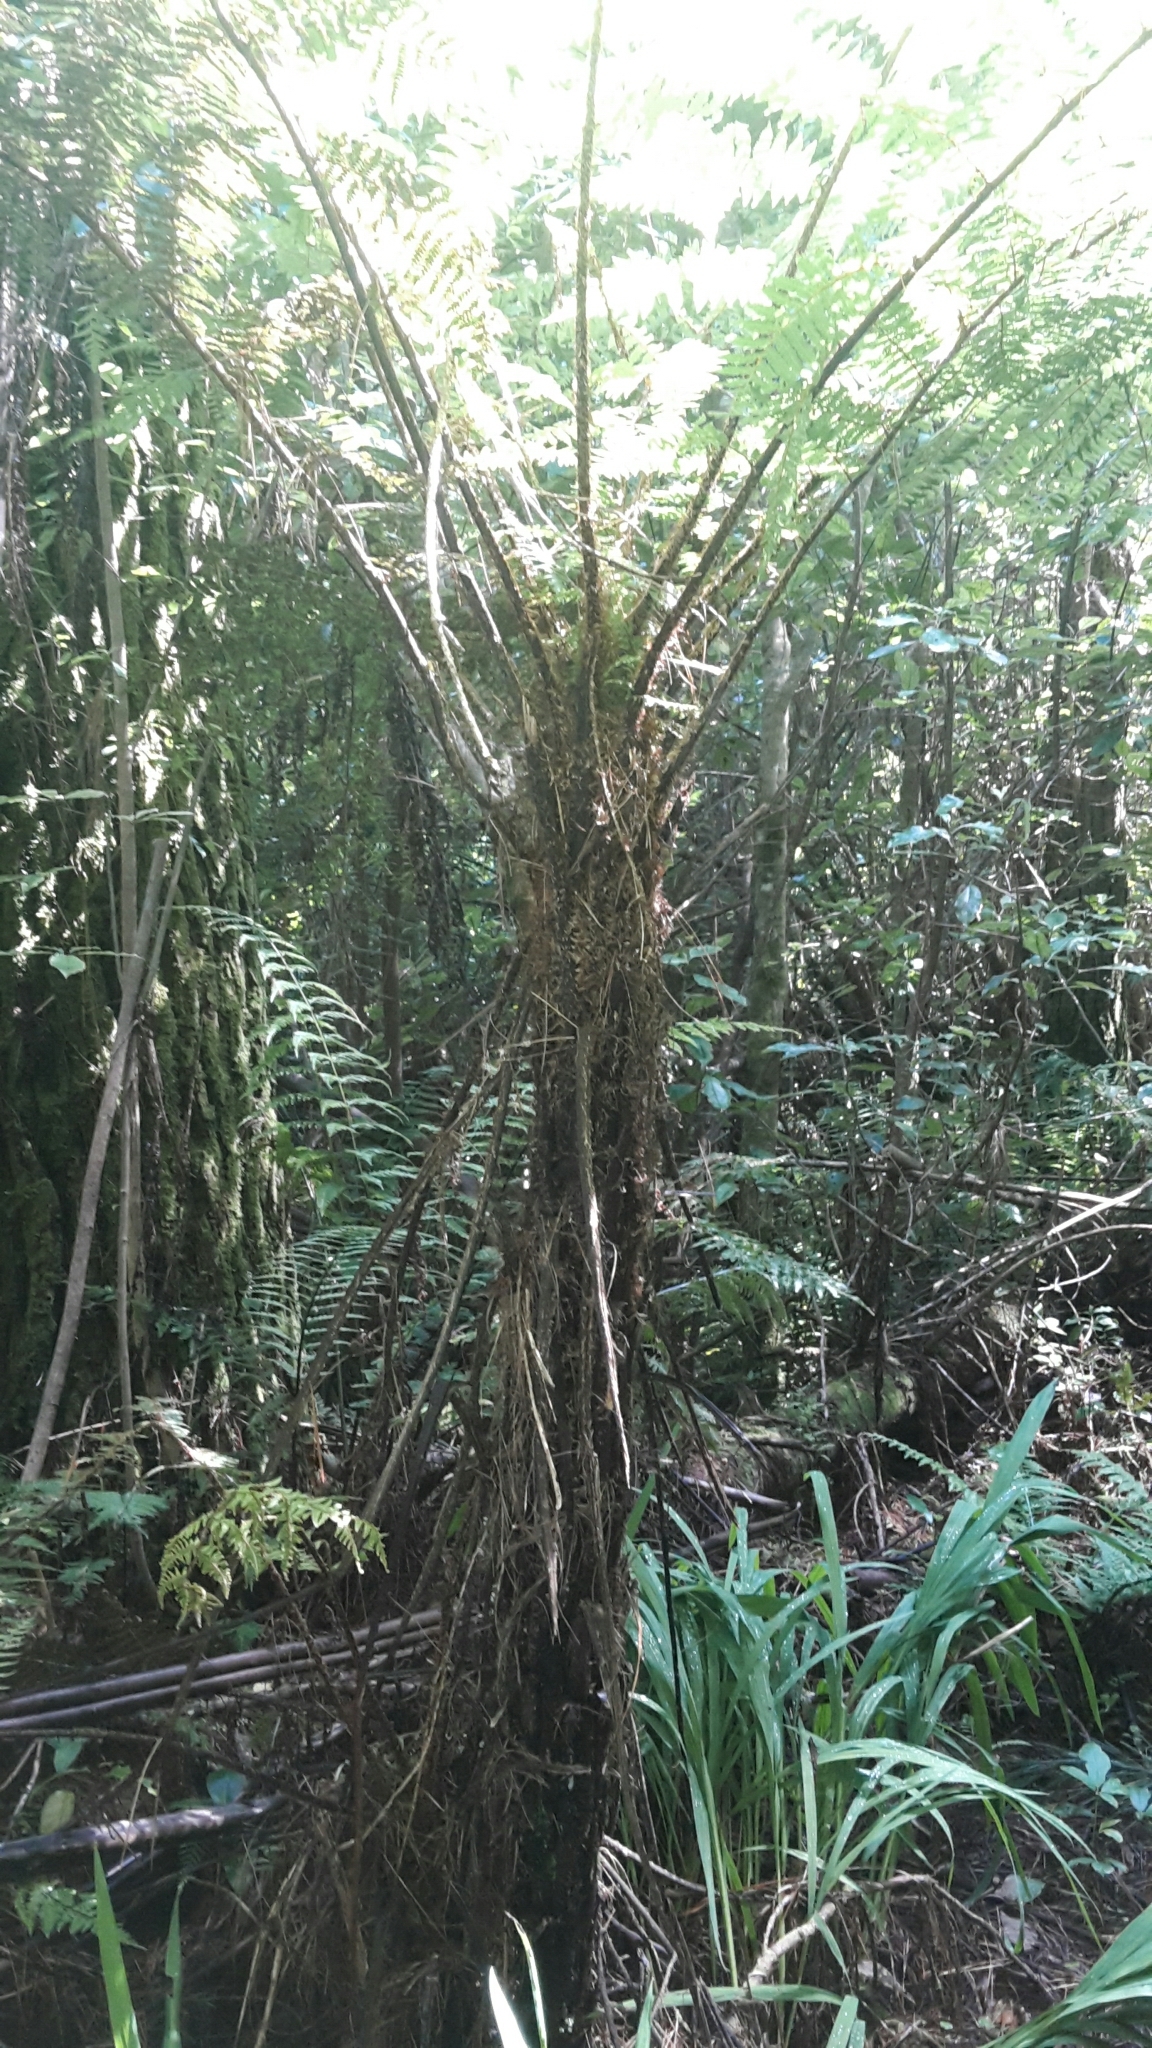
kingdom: Plantae
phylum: Tracheophyta
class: Polypodiopsida
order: Cyatheales
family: Cyatheaceae
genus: Cyathea
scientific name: Cyathea cunninghamii
